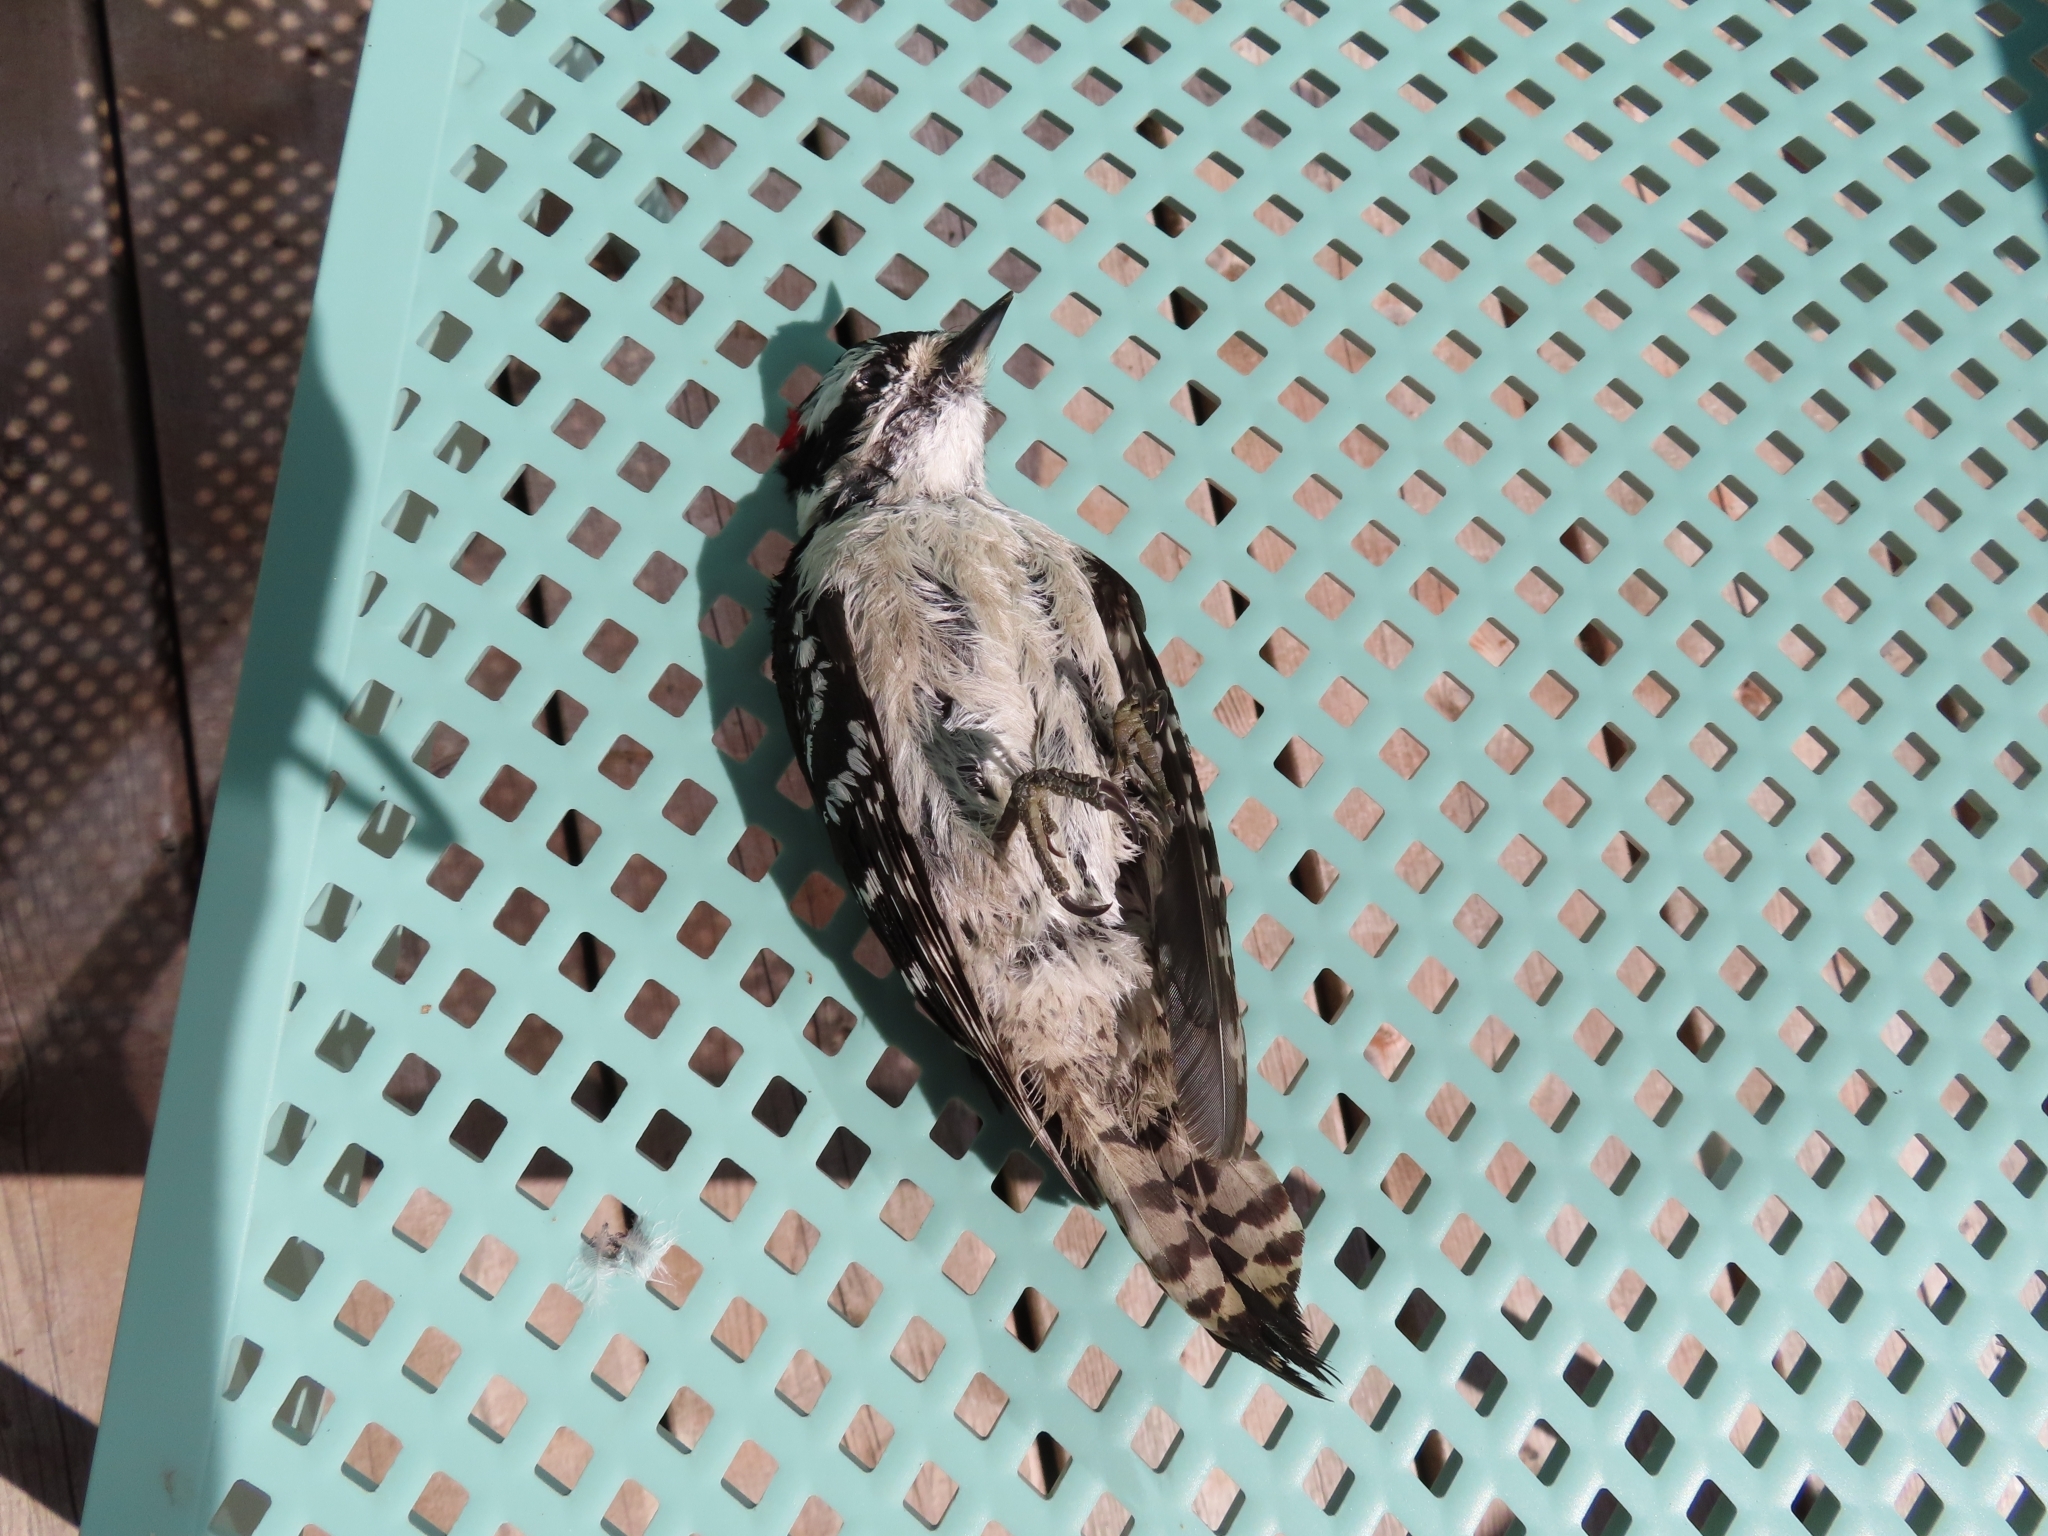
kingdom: Animalia
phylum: Chordata
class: Aves
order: Piciformes
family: Picidae
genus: Dryobates
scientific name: Dryobates pubescens
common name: Downy woodpecker
